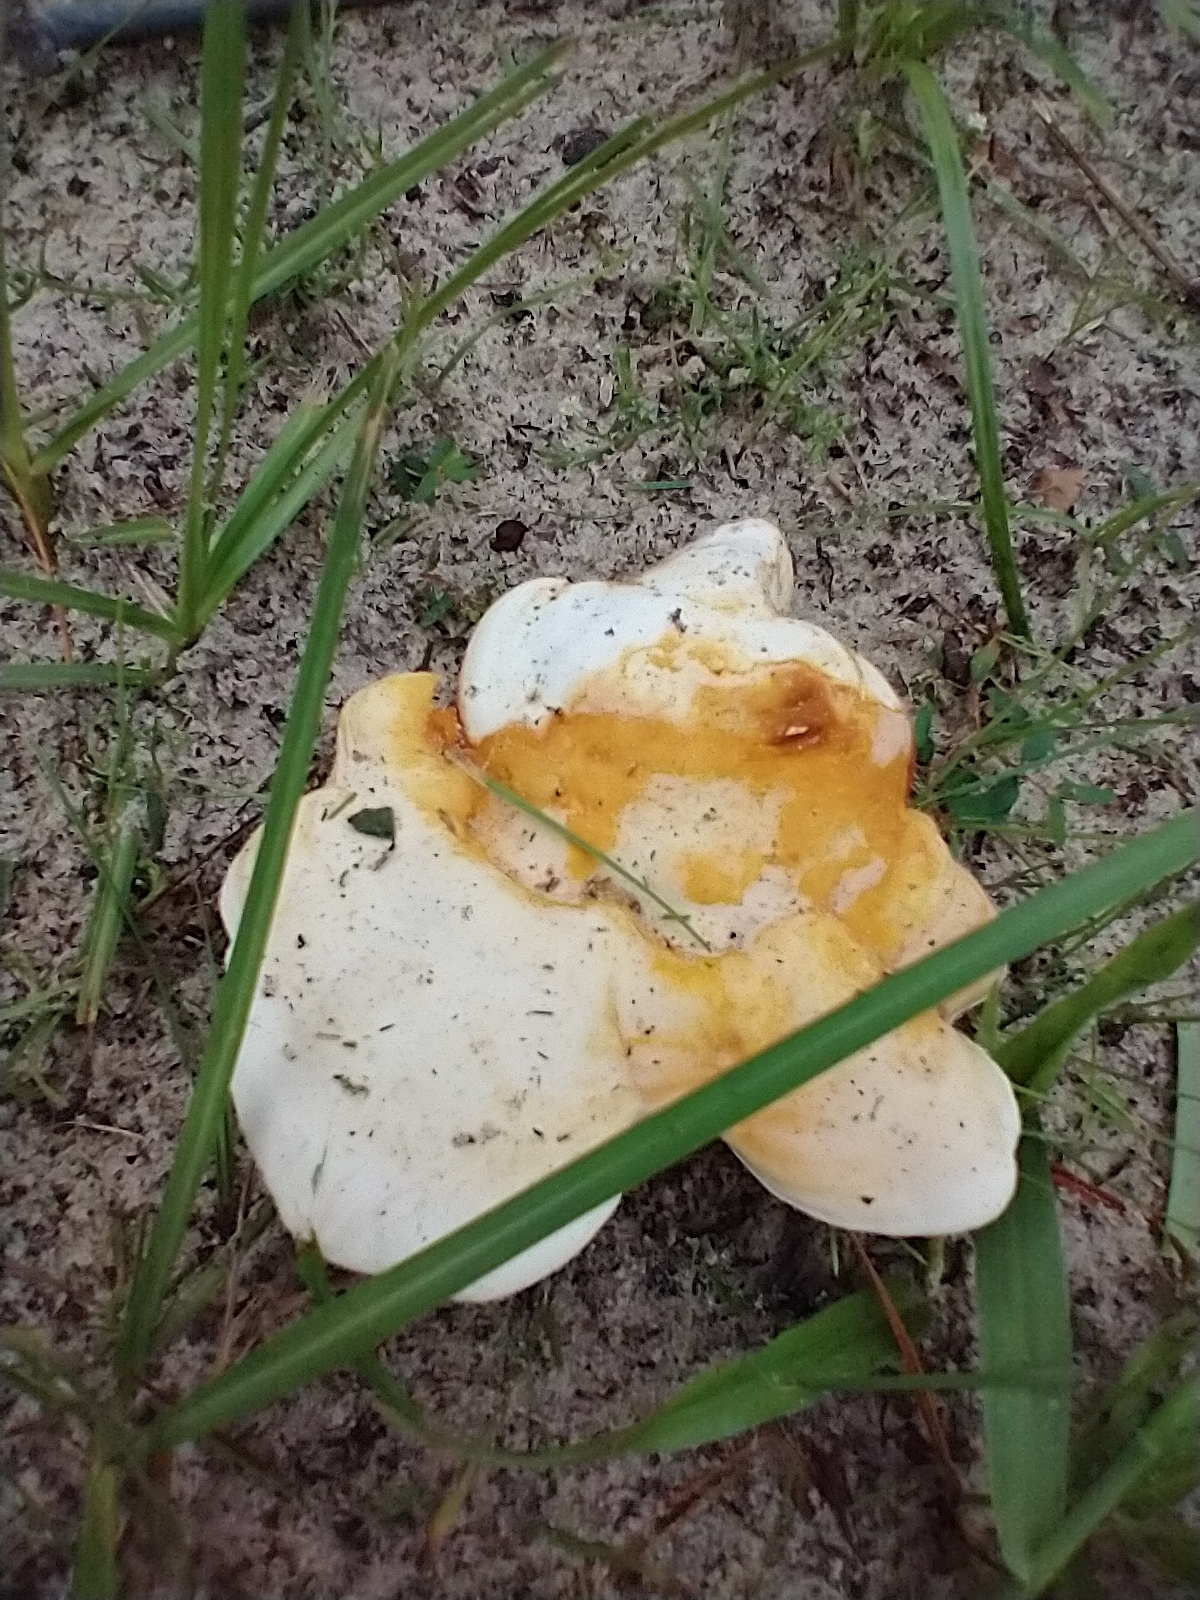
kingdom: Fungi
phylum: Basidiomycota
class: Agaricomycetes
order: Polyporales
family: Polyporaceae
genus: Ganoderma
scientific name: Ganoderma curtisii
